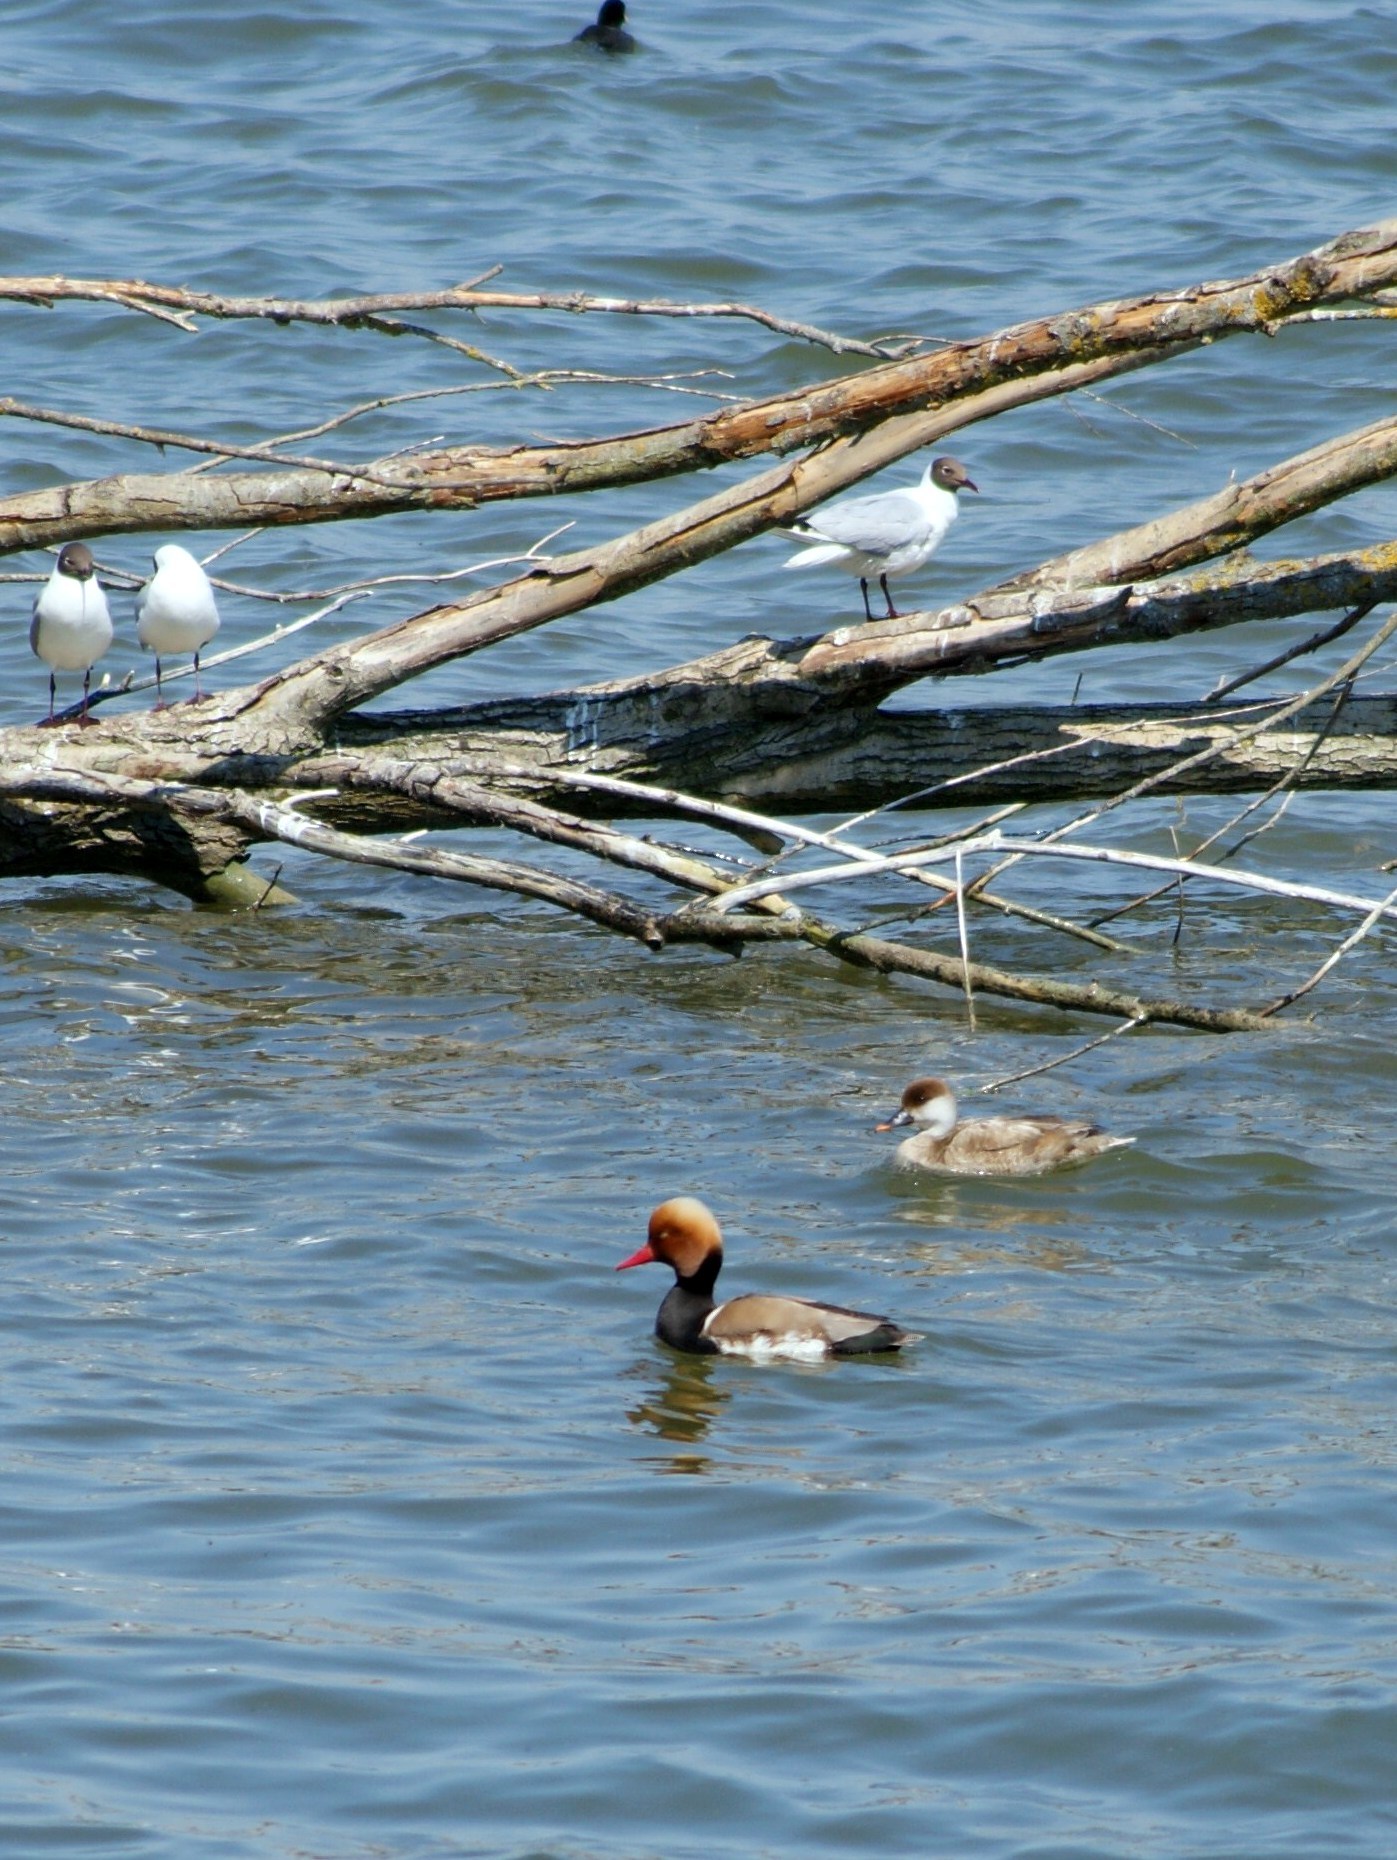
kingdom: Animalia
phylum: Chordata
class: Aves
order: Anseriformes
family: Anatidae
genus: Netta
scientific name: Netta rufina
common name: Red-crested pochard
